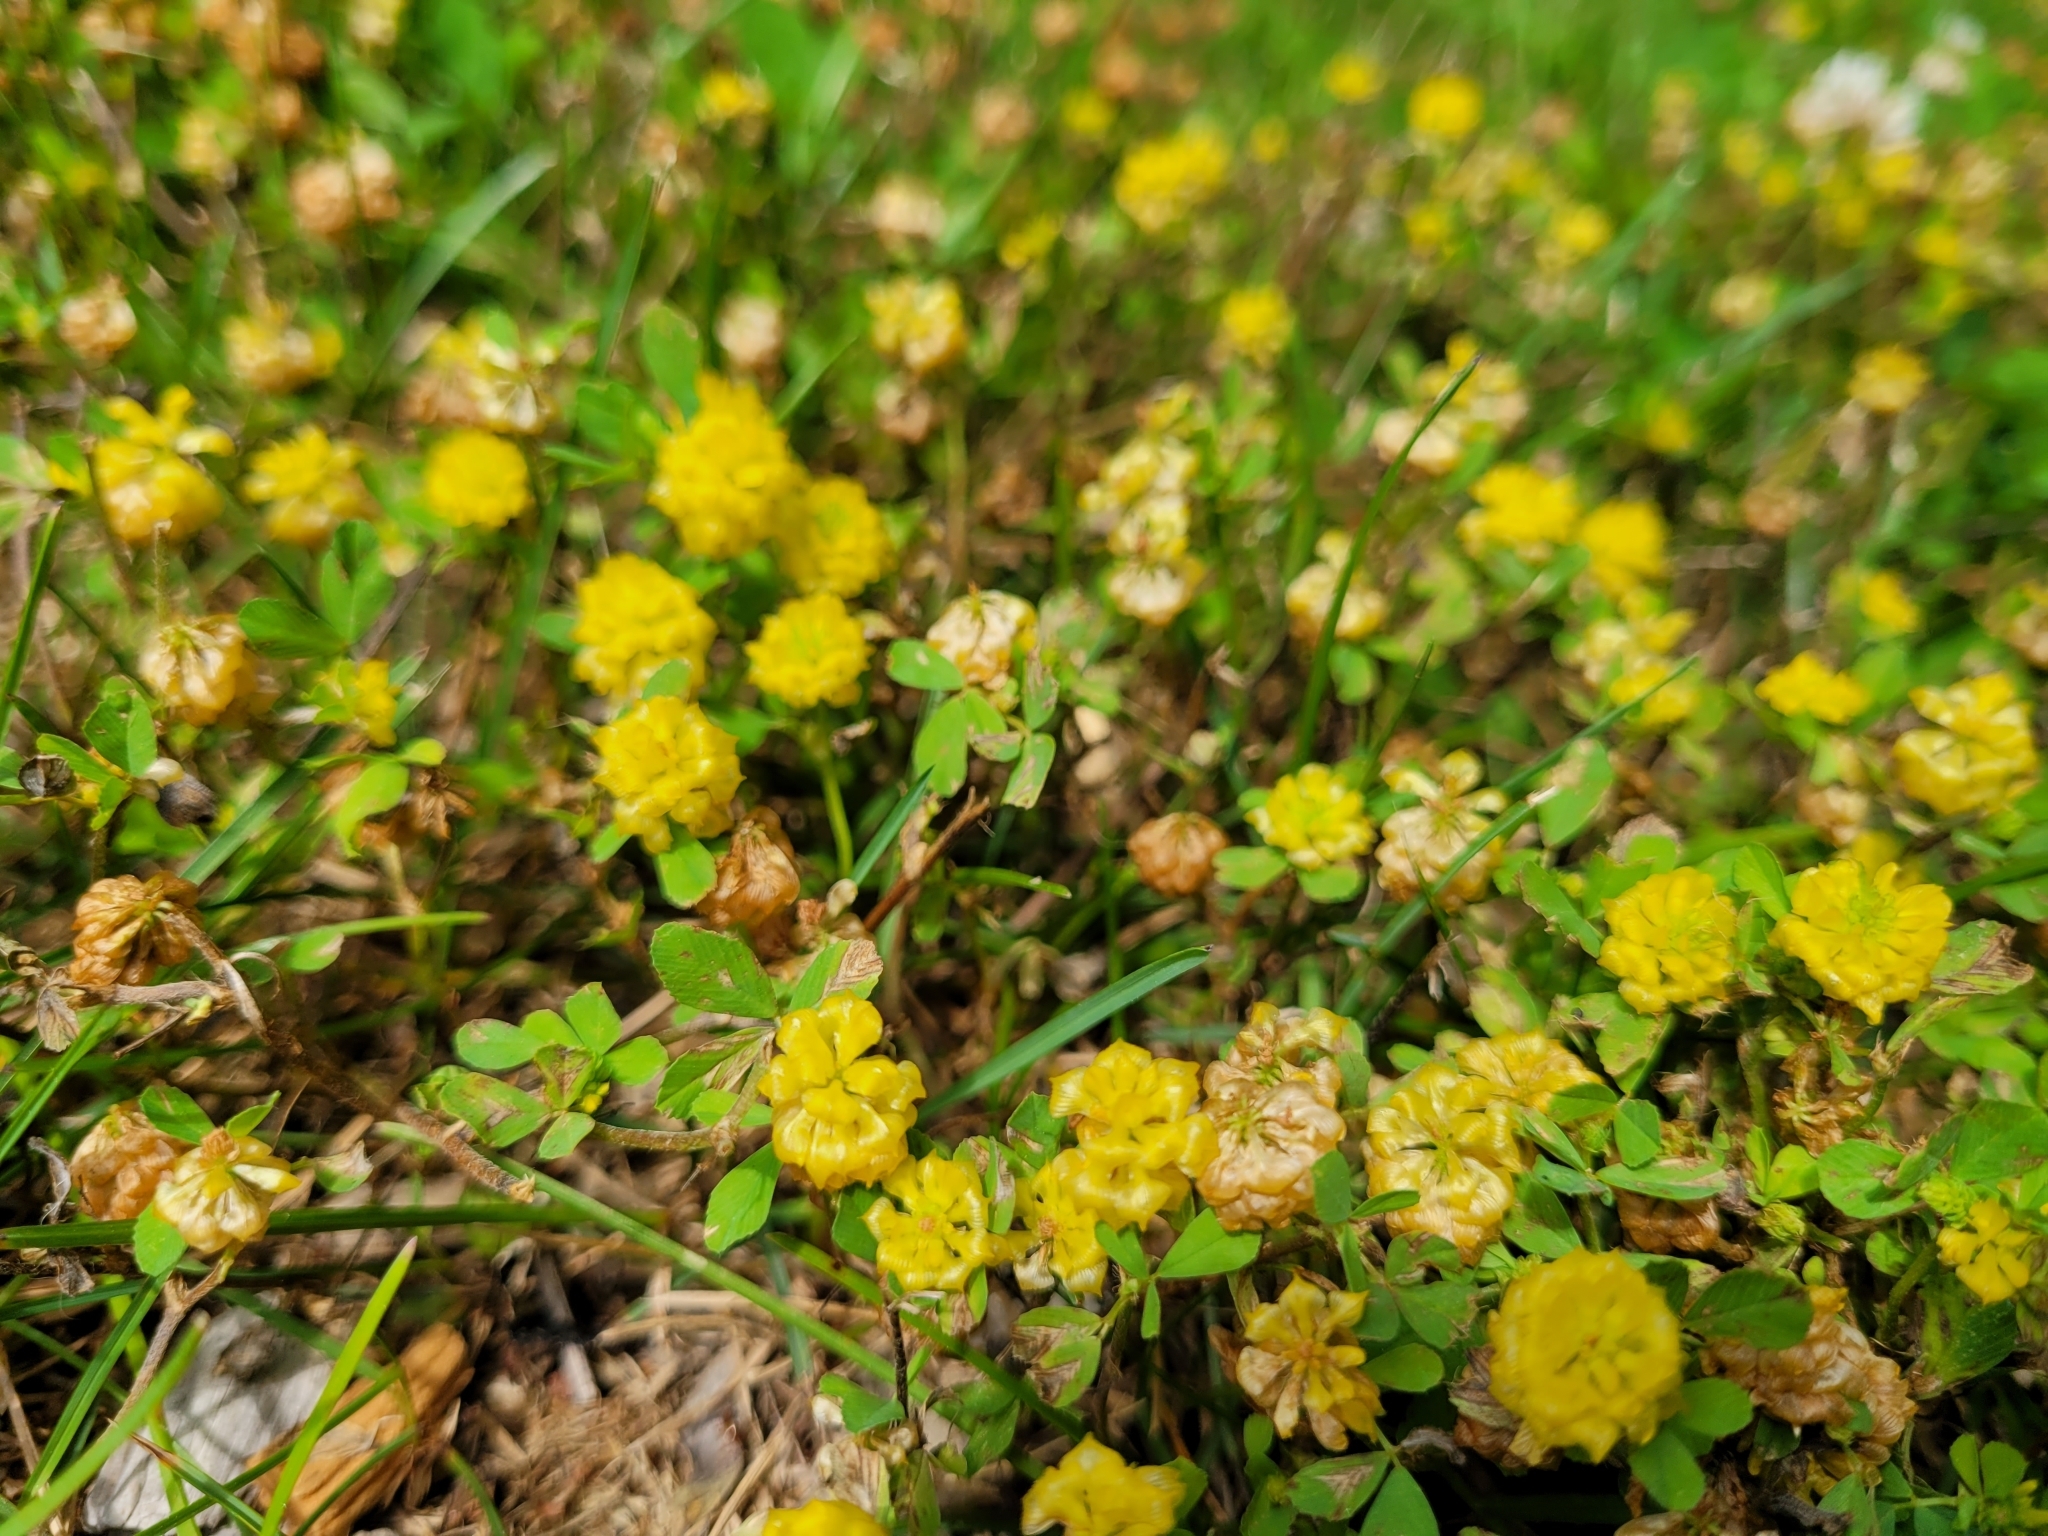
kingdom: Plantae
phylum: Tracheophyta
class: Magnoliopsida
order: Fabales
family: Fabaceae
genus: Trifolium
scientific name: Trifolium campestre
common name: Field clover
